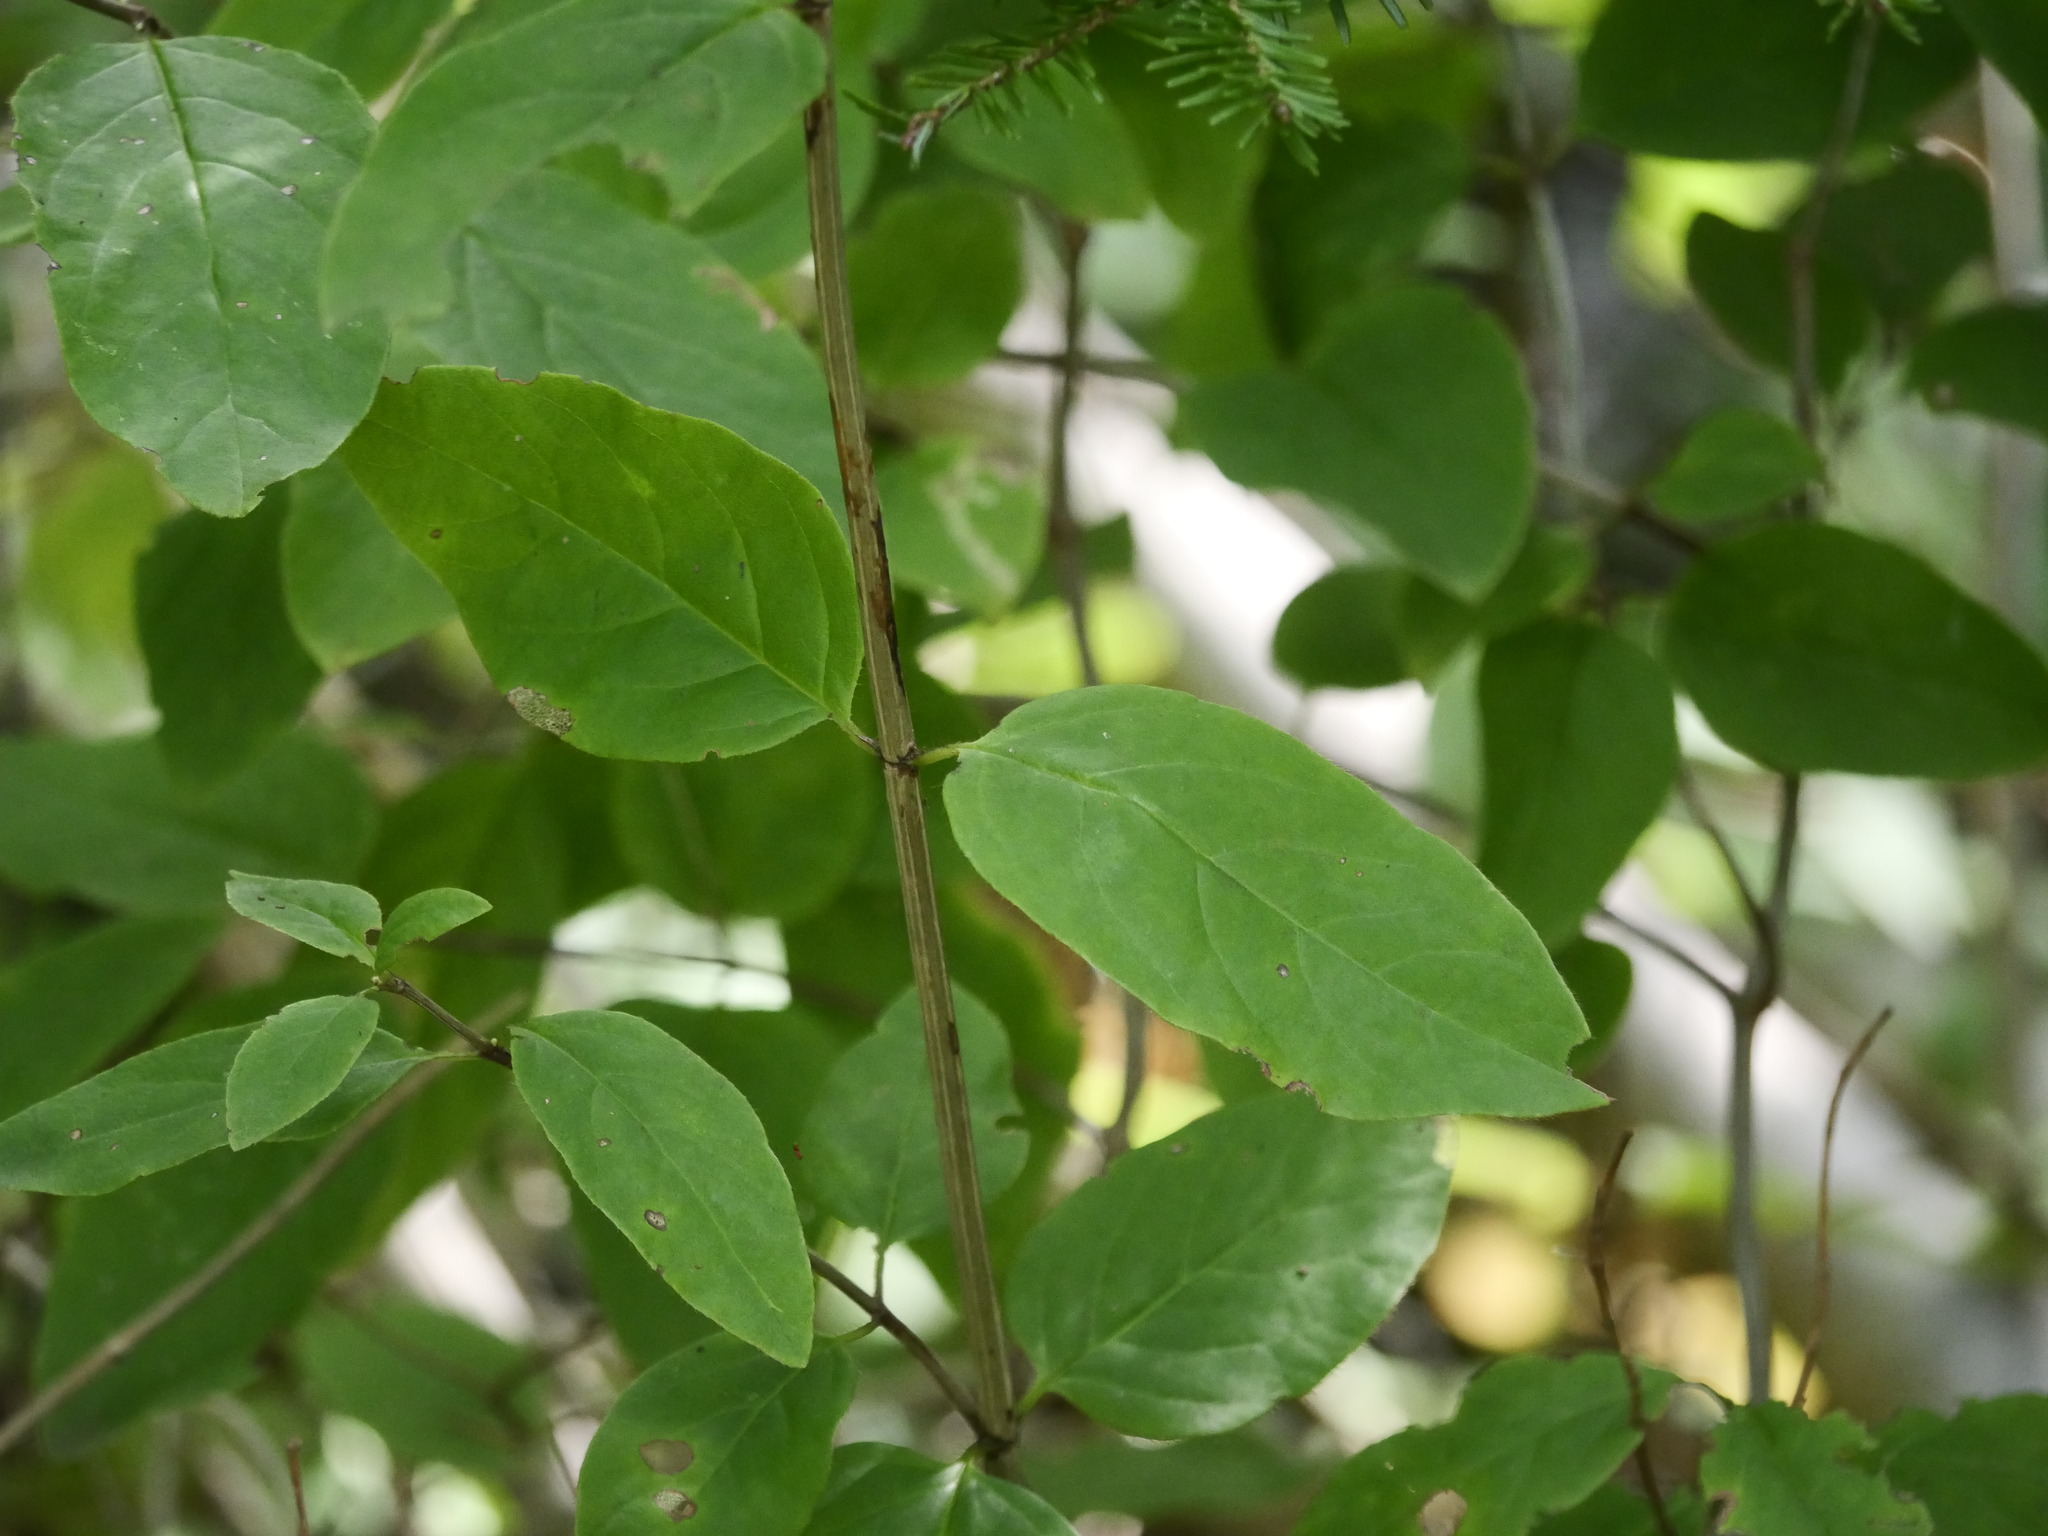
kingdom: Plantae
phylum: Tracheophyta
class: Magnoliopsida
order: Dipsacales
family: Caprifoliaceae
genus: Lonicera
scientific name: Lonicera canadensis
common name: American fly-honeysuckle
